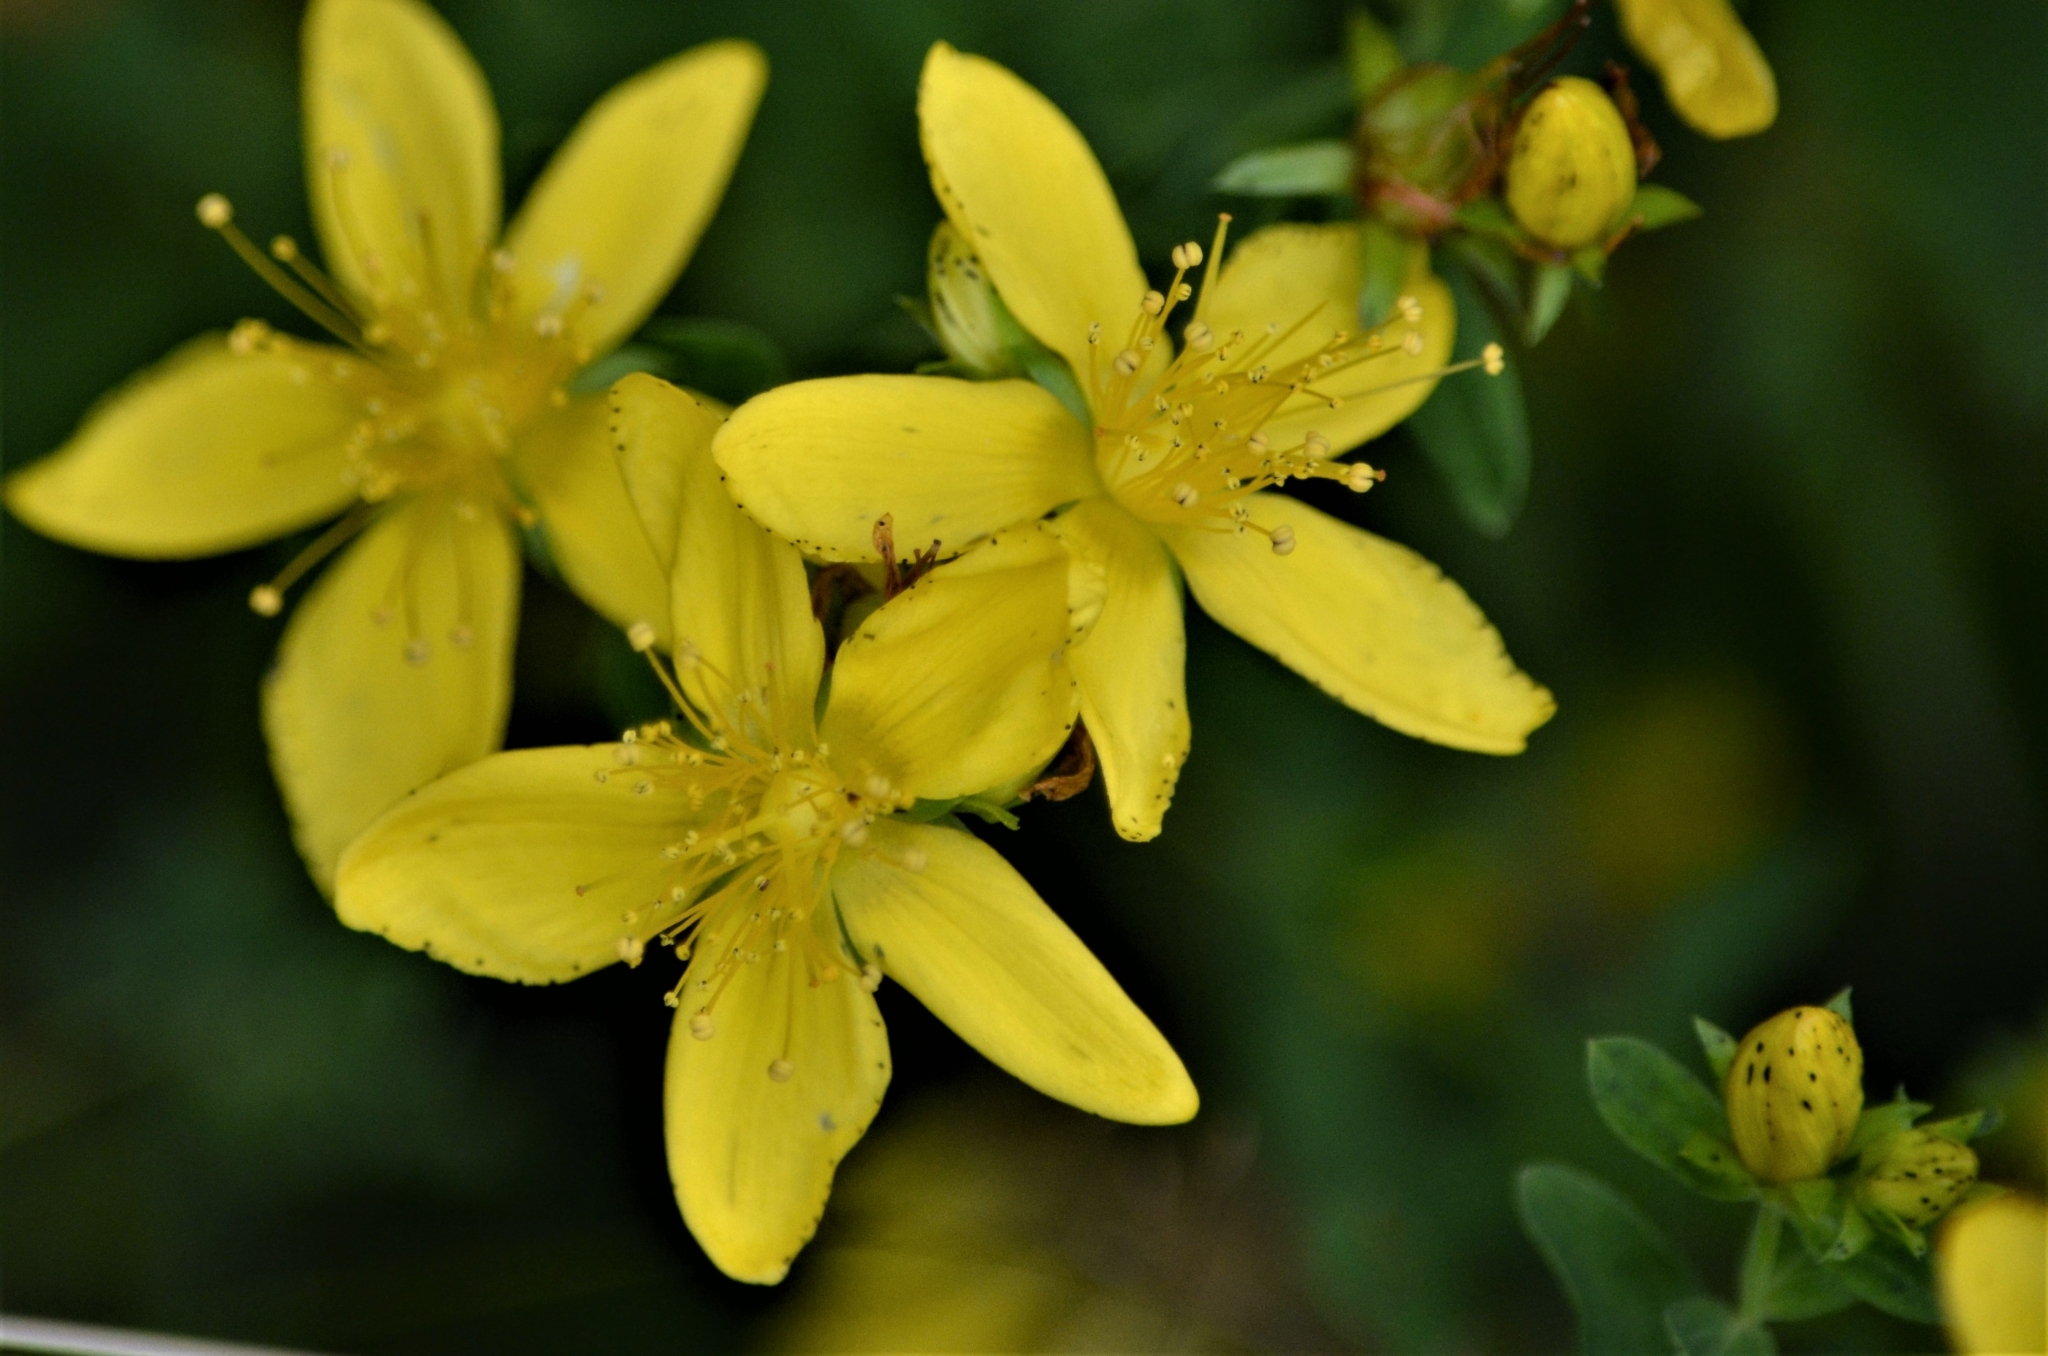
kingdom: Plantae
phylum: Tracheophyta
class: Magnoliopsida
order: Malpighiales
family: Hypericaceae
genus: Hypericum
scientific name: Hypericum perforatum
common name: Common st. johnswort
